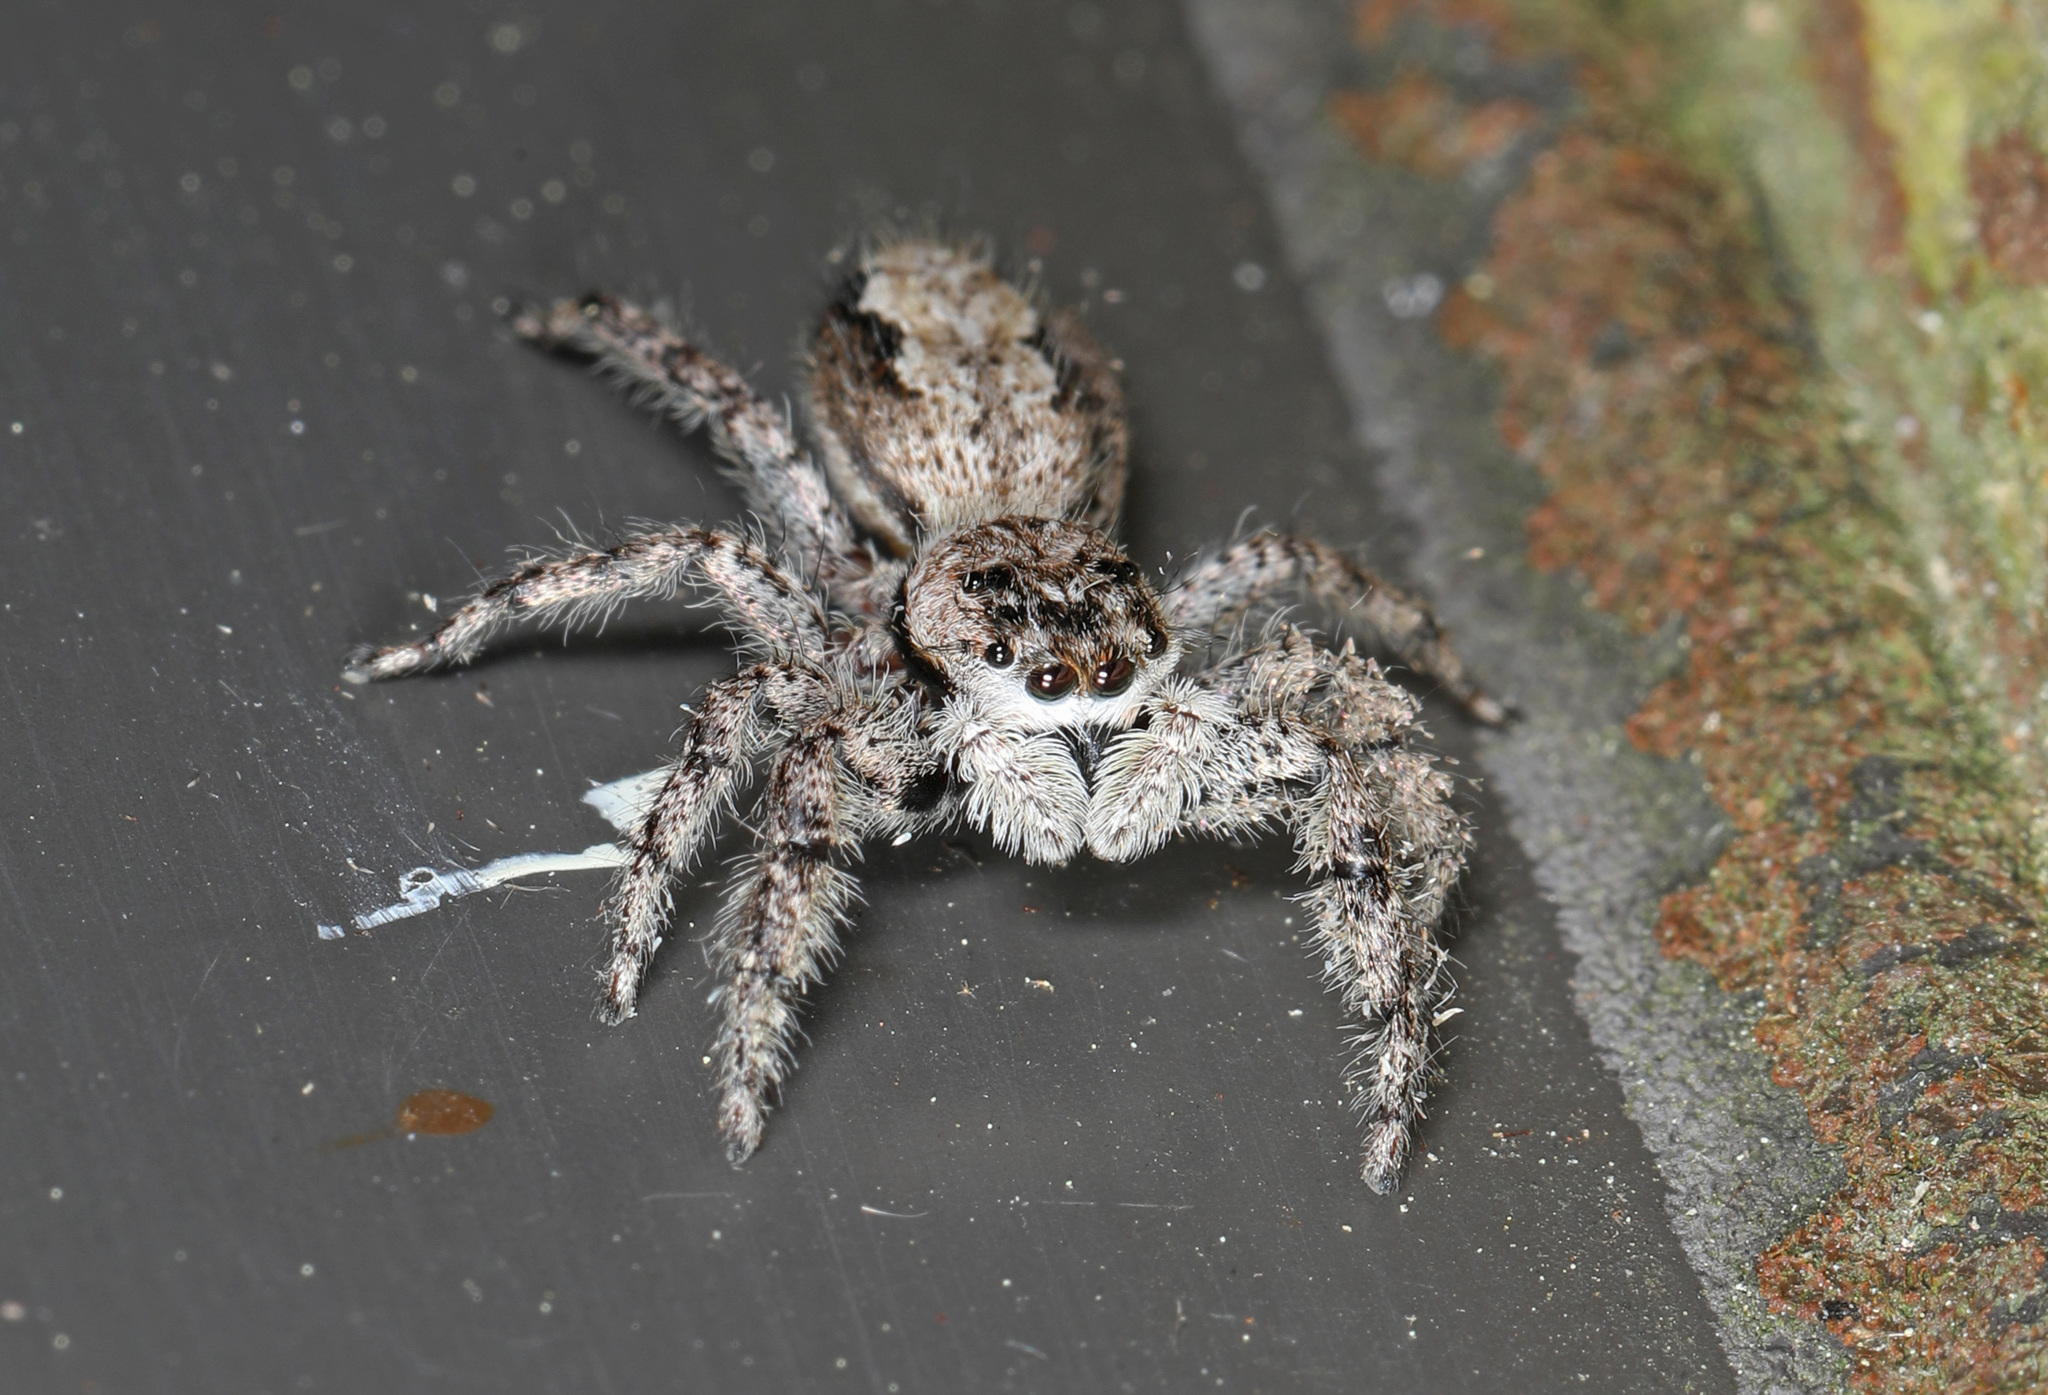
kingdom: Animalia
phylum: Arthropoda
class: Arachnida
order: Araneae
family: Salticidae
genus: Platycryptus
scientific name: Platycryptus undatus
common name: Tan jumping spider
